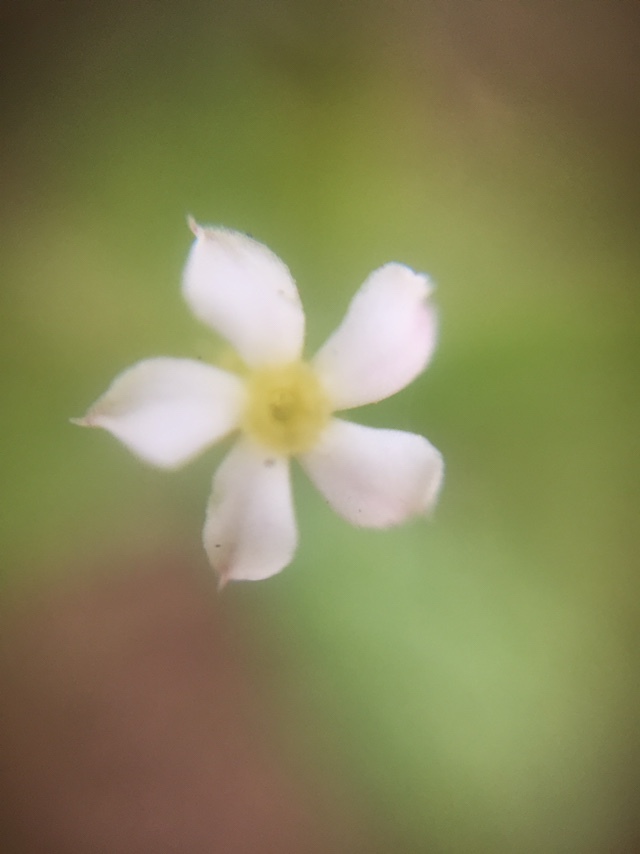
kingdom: Plantae
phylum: Tracheophyta
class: Magnoliopsida
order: Gentianales
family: Apocynaceae
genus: Catharanthus
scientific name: Catharanthus pusillus
